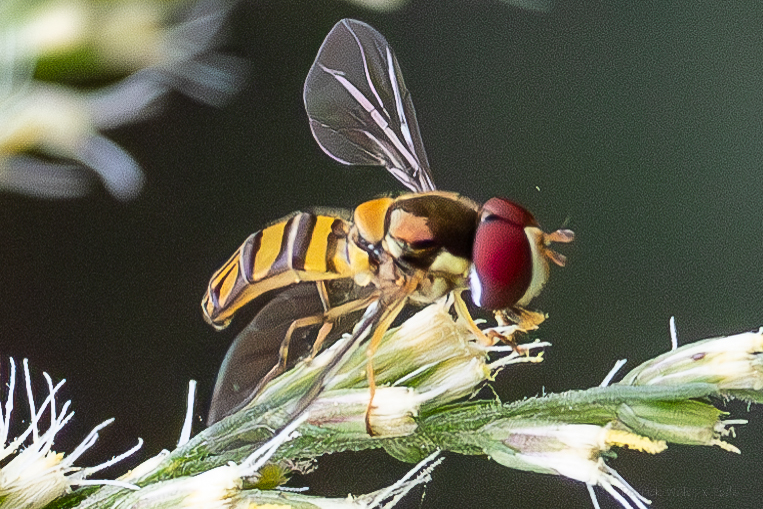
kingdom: Animalia
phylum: Arthropoda
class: Insecta
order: Diptera
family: Syrphidae
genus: Allograpta
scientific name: Allograpta obliqua
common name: Common oblique syrphid
